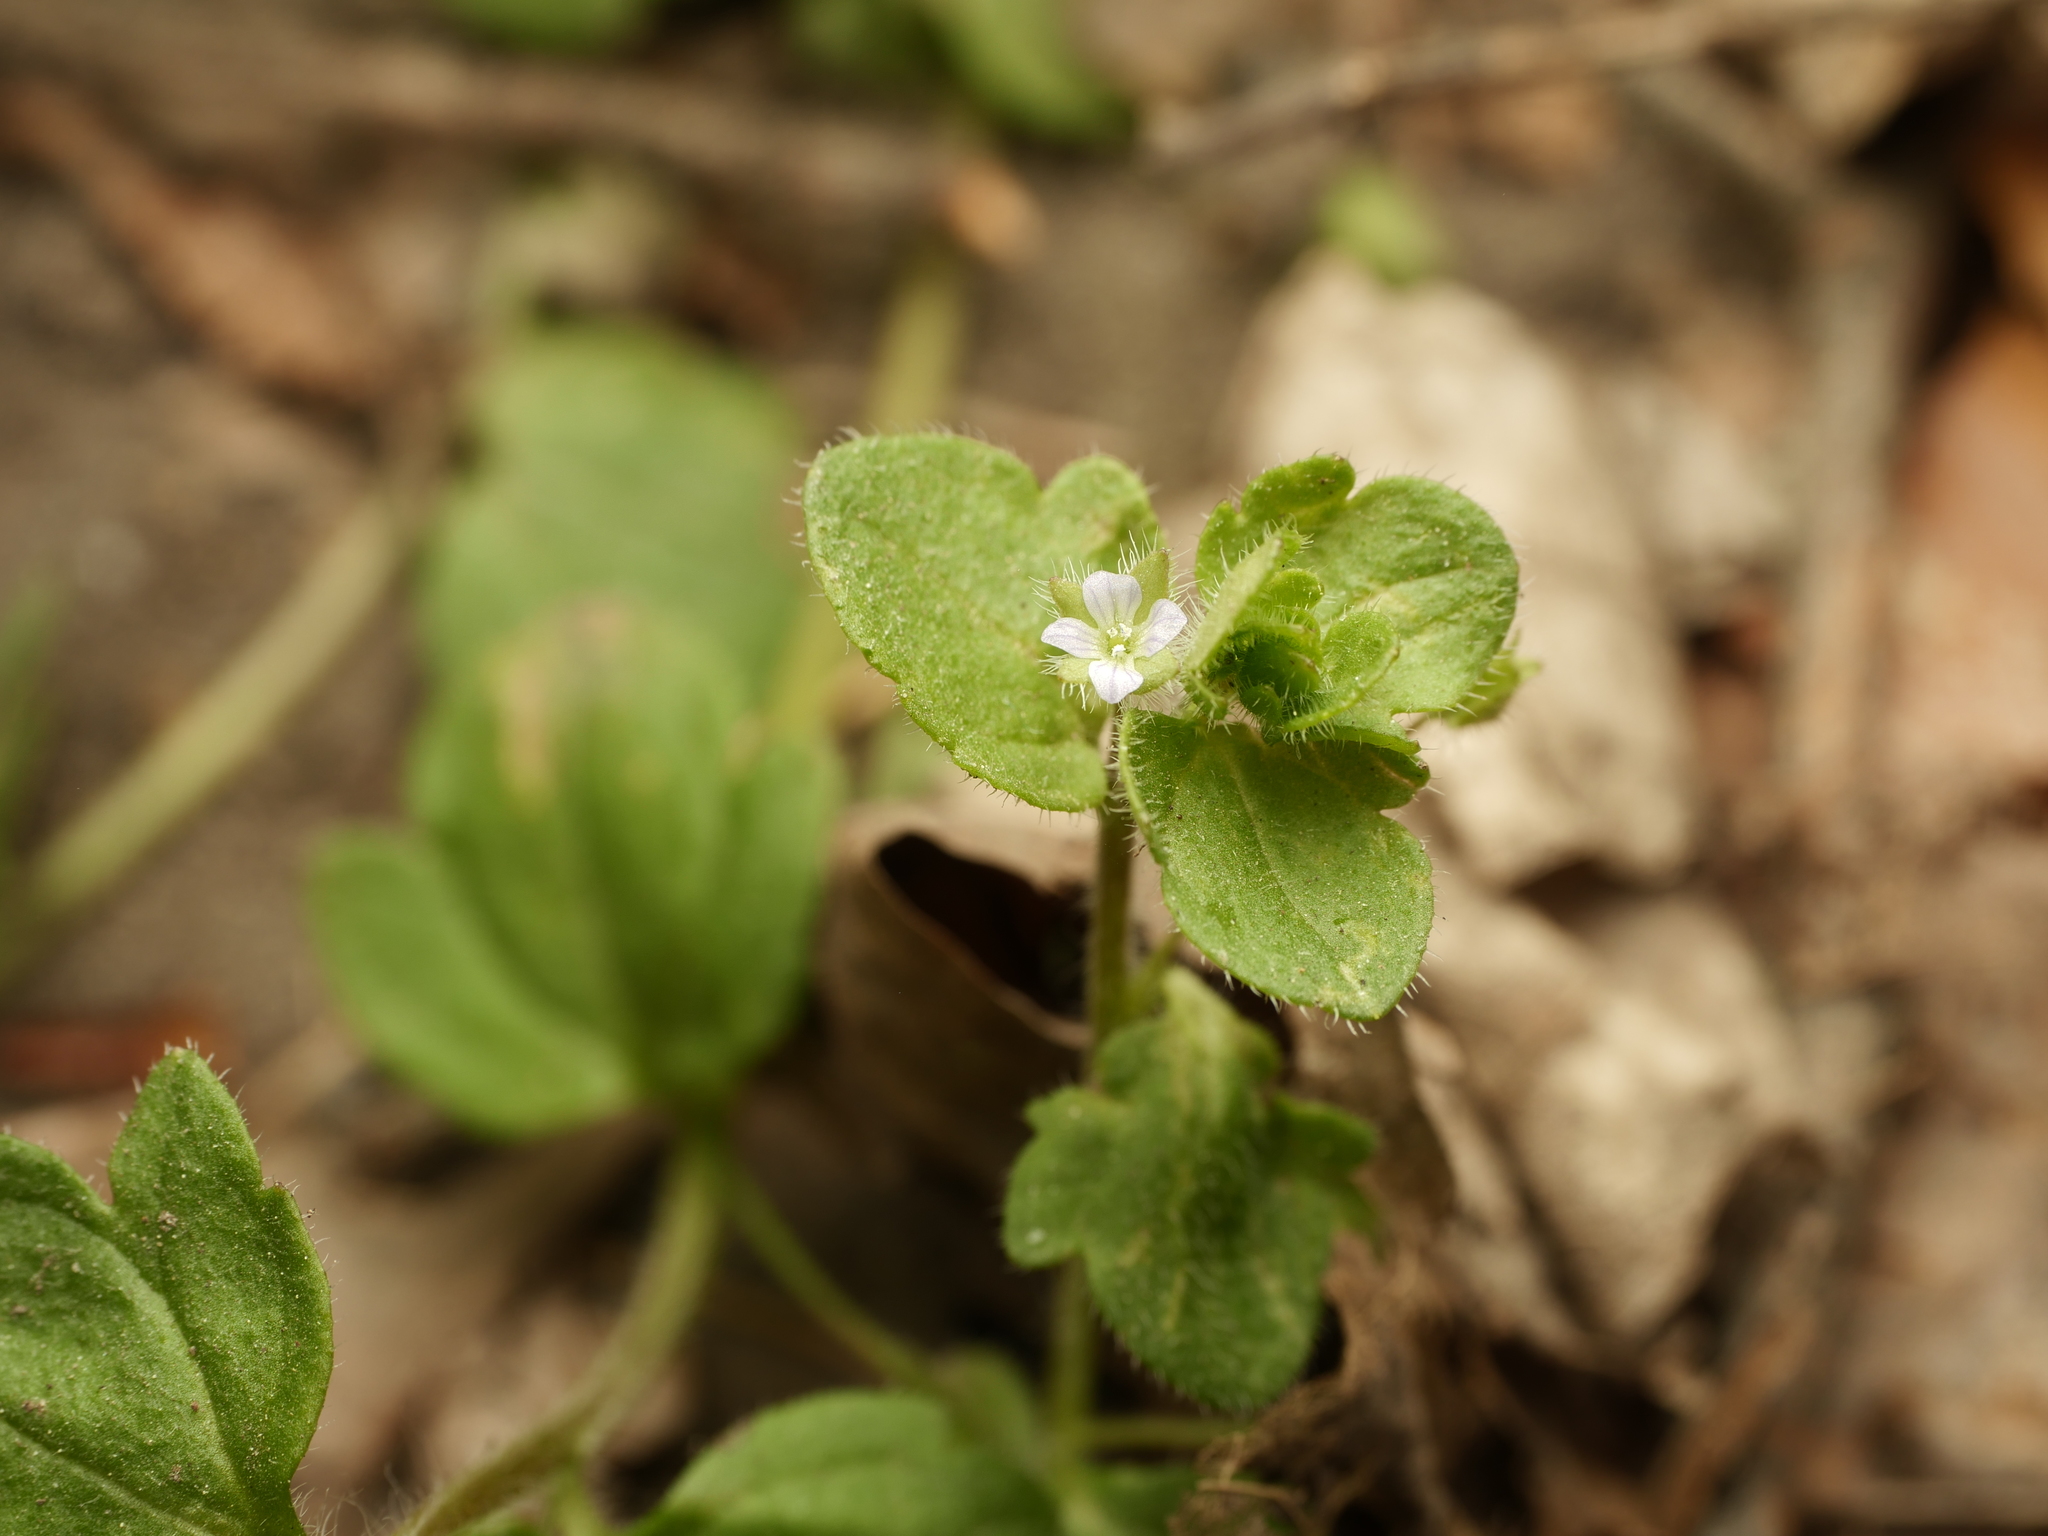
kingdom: Plantae
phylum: Tracheophyta
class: Magnoliopsida
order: Lamiales
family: Plantaginaceae
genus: Veronica
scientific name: Veronica sublobata
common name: False ivy-leaved speedwell
